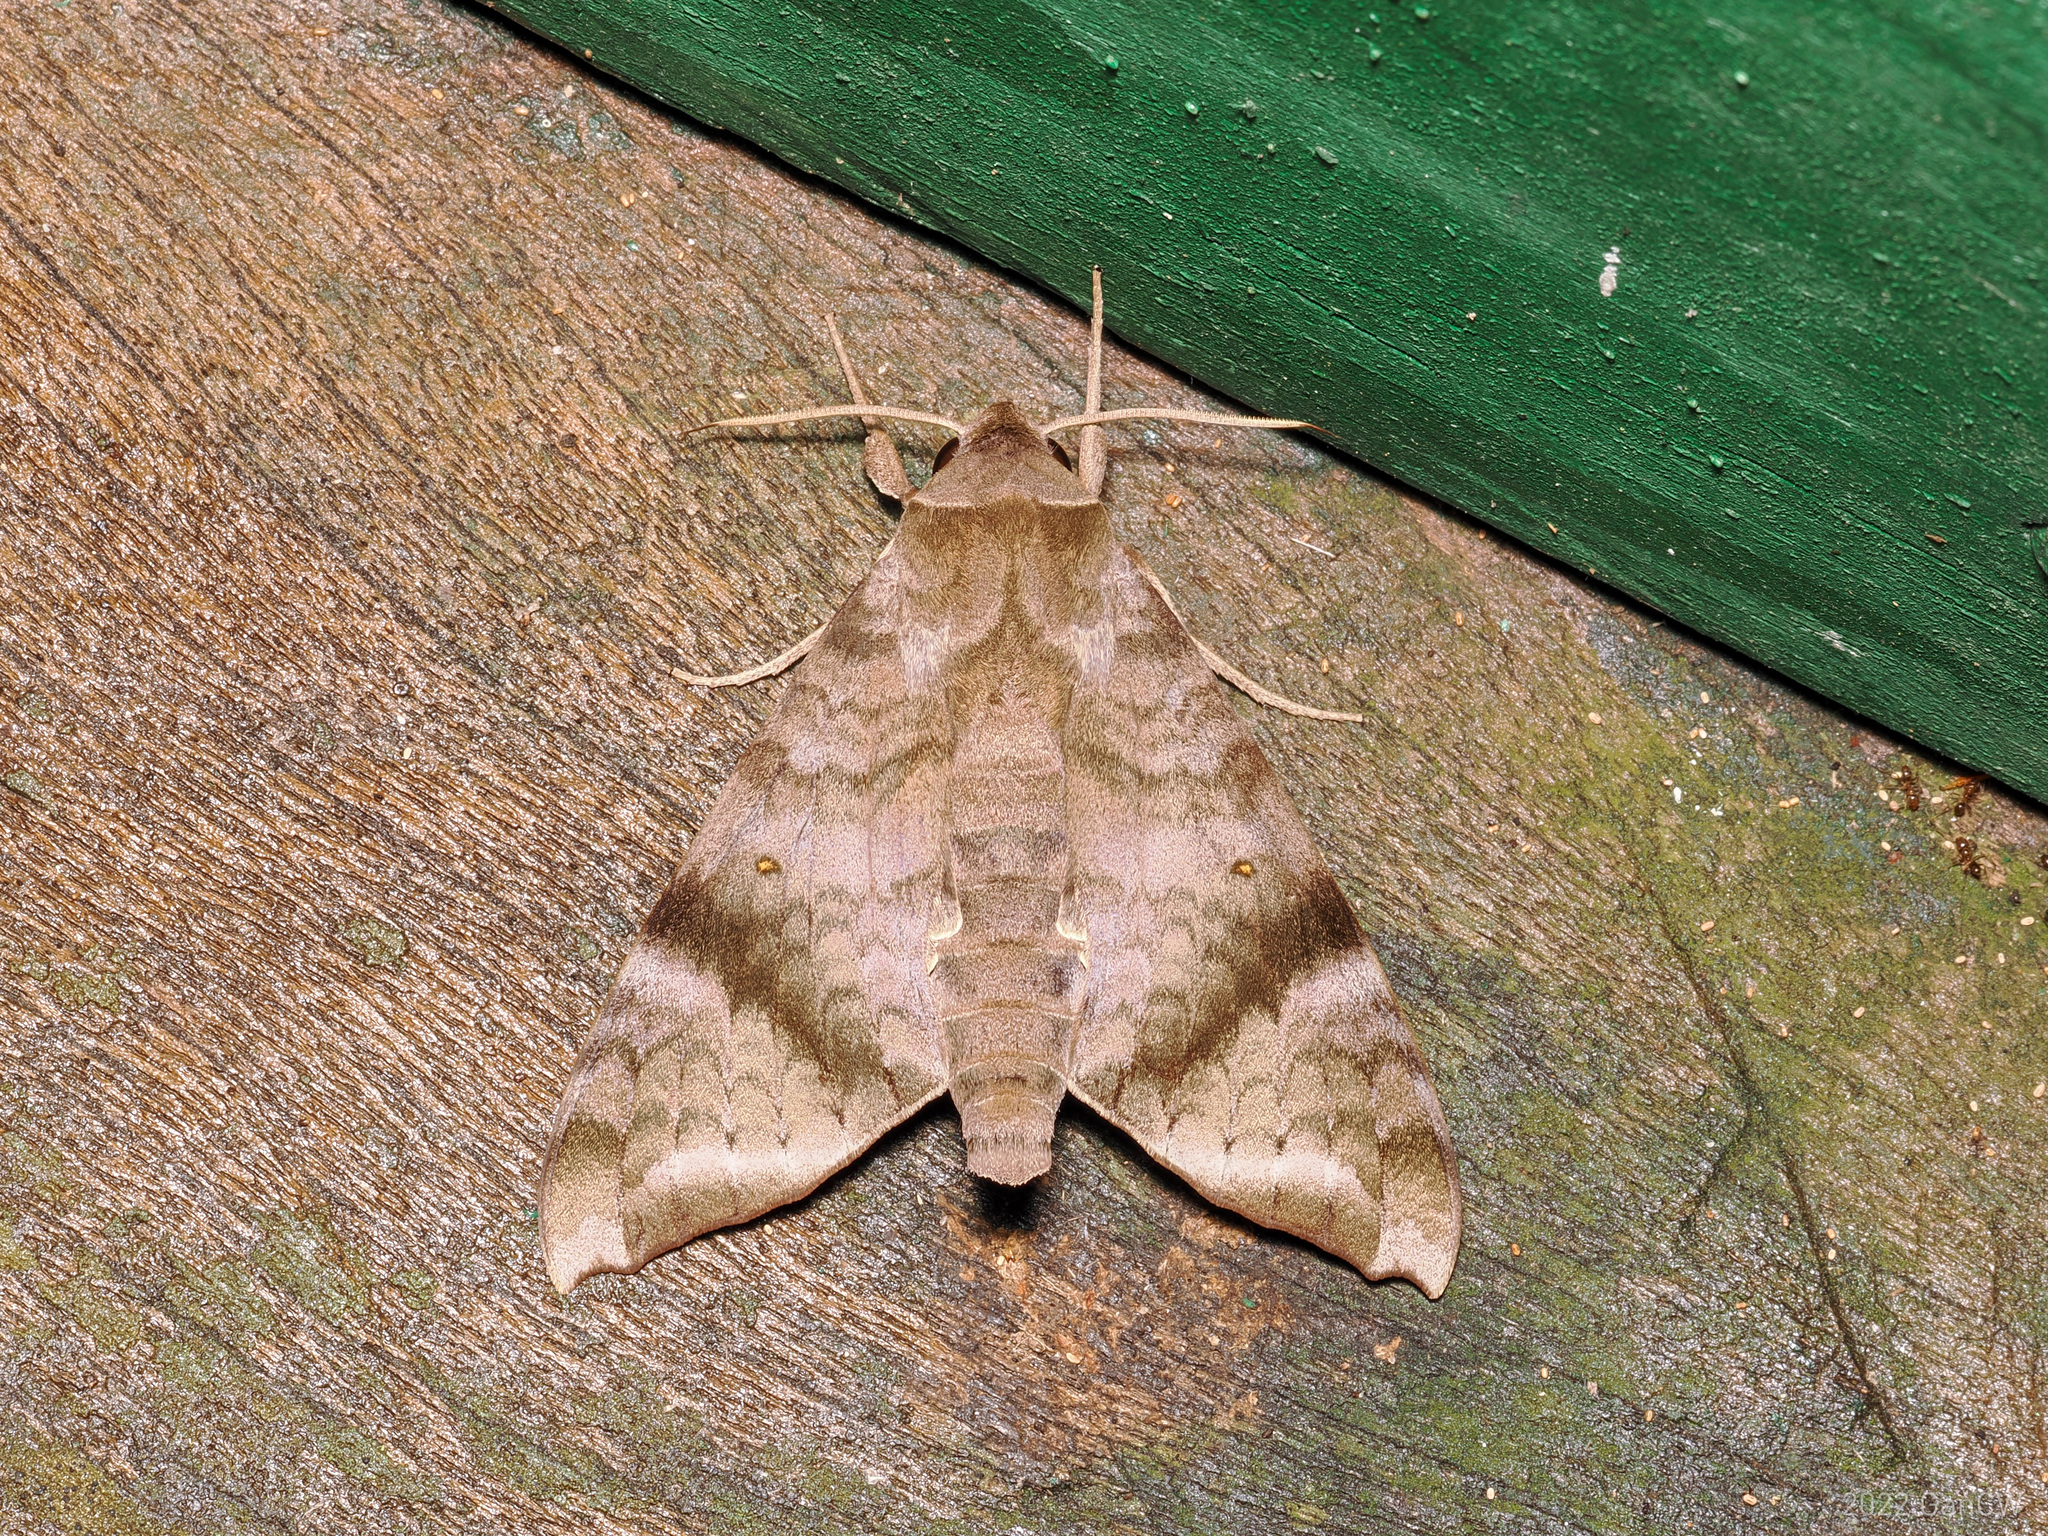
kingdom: Animalia
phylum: Arthropoda
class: Insecta
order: Lepidoptera
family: Sphingidae
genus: Acosmeryx
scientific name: Acosmeryx shervillii
